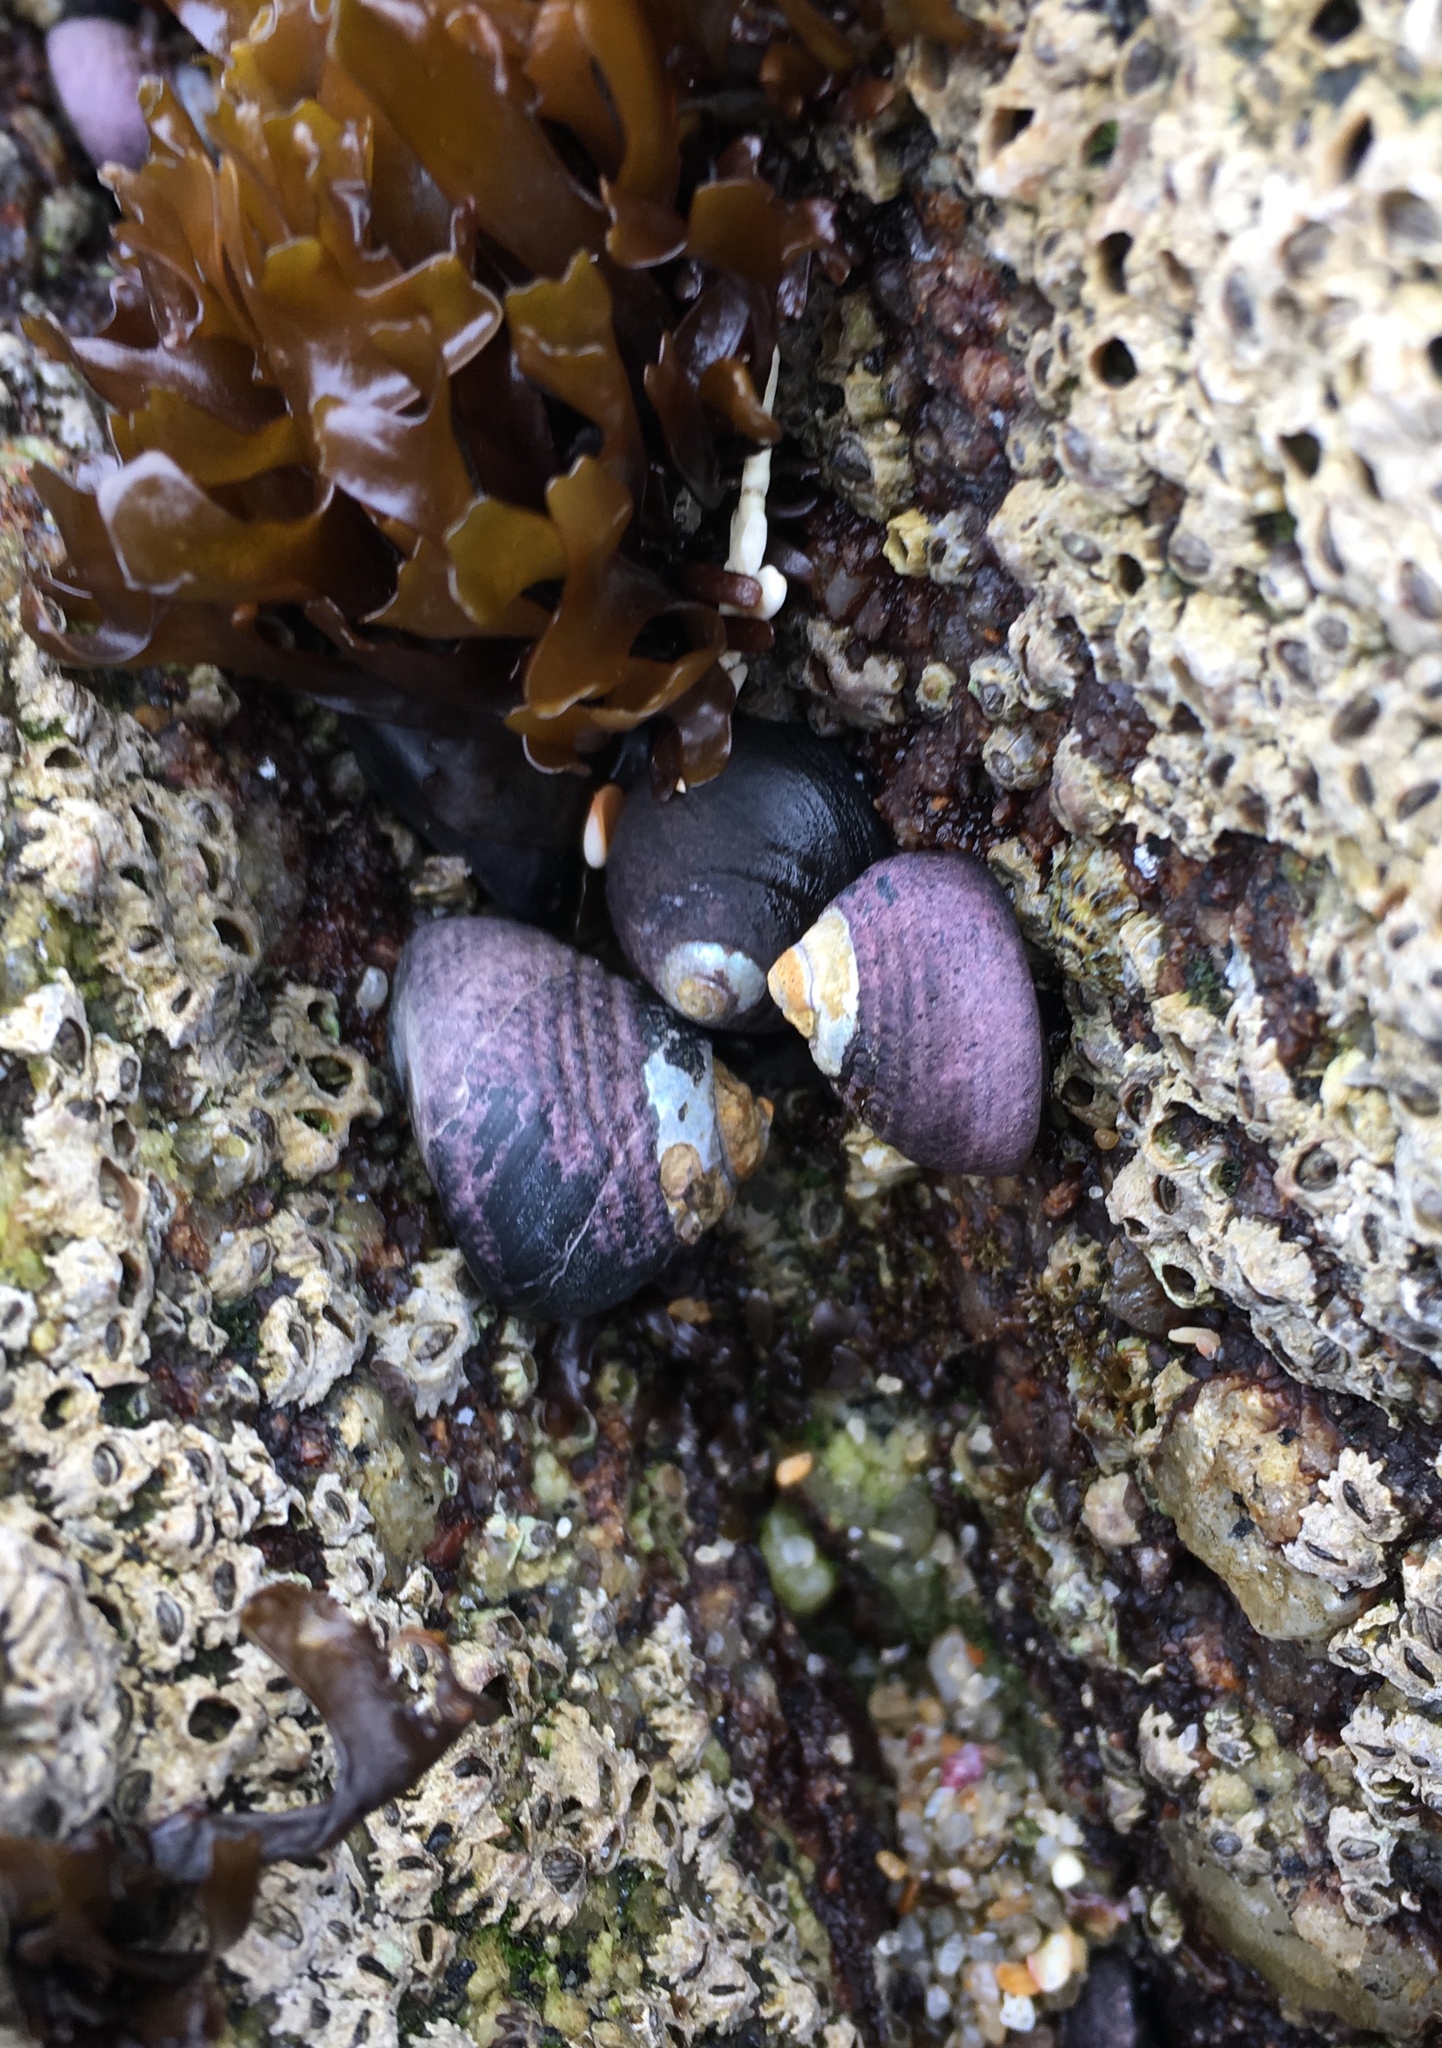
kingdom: Animalia
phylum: Mollusca
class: Gastropoda
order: Trochida
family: Tegulidae
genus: Tegula
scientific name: Tegula funebralis
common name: Black tegula
